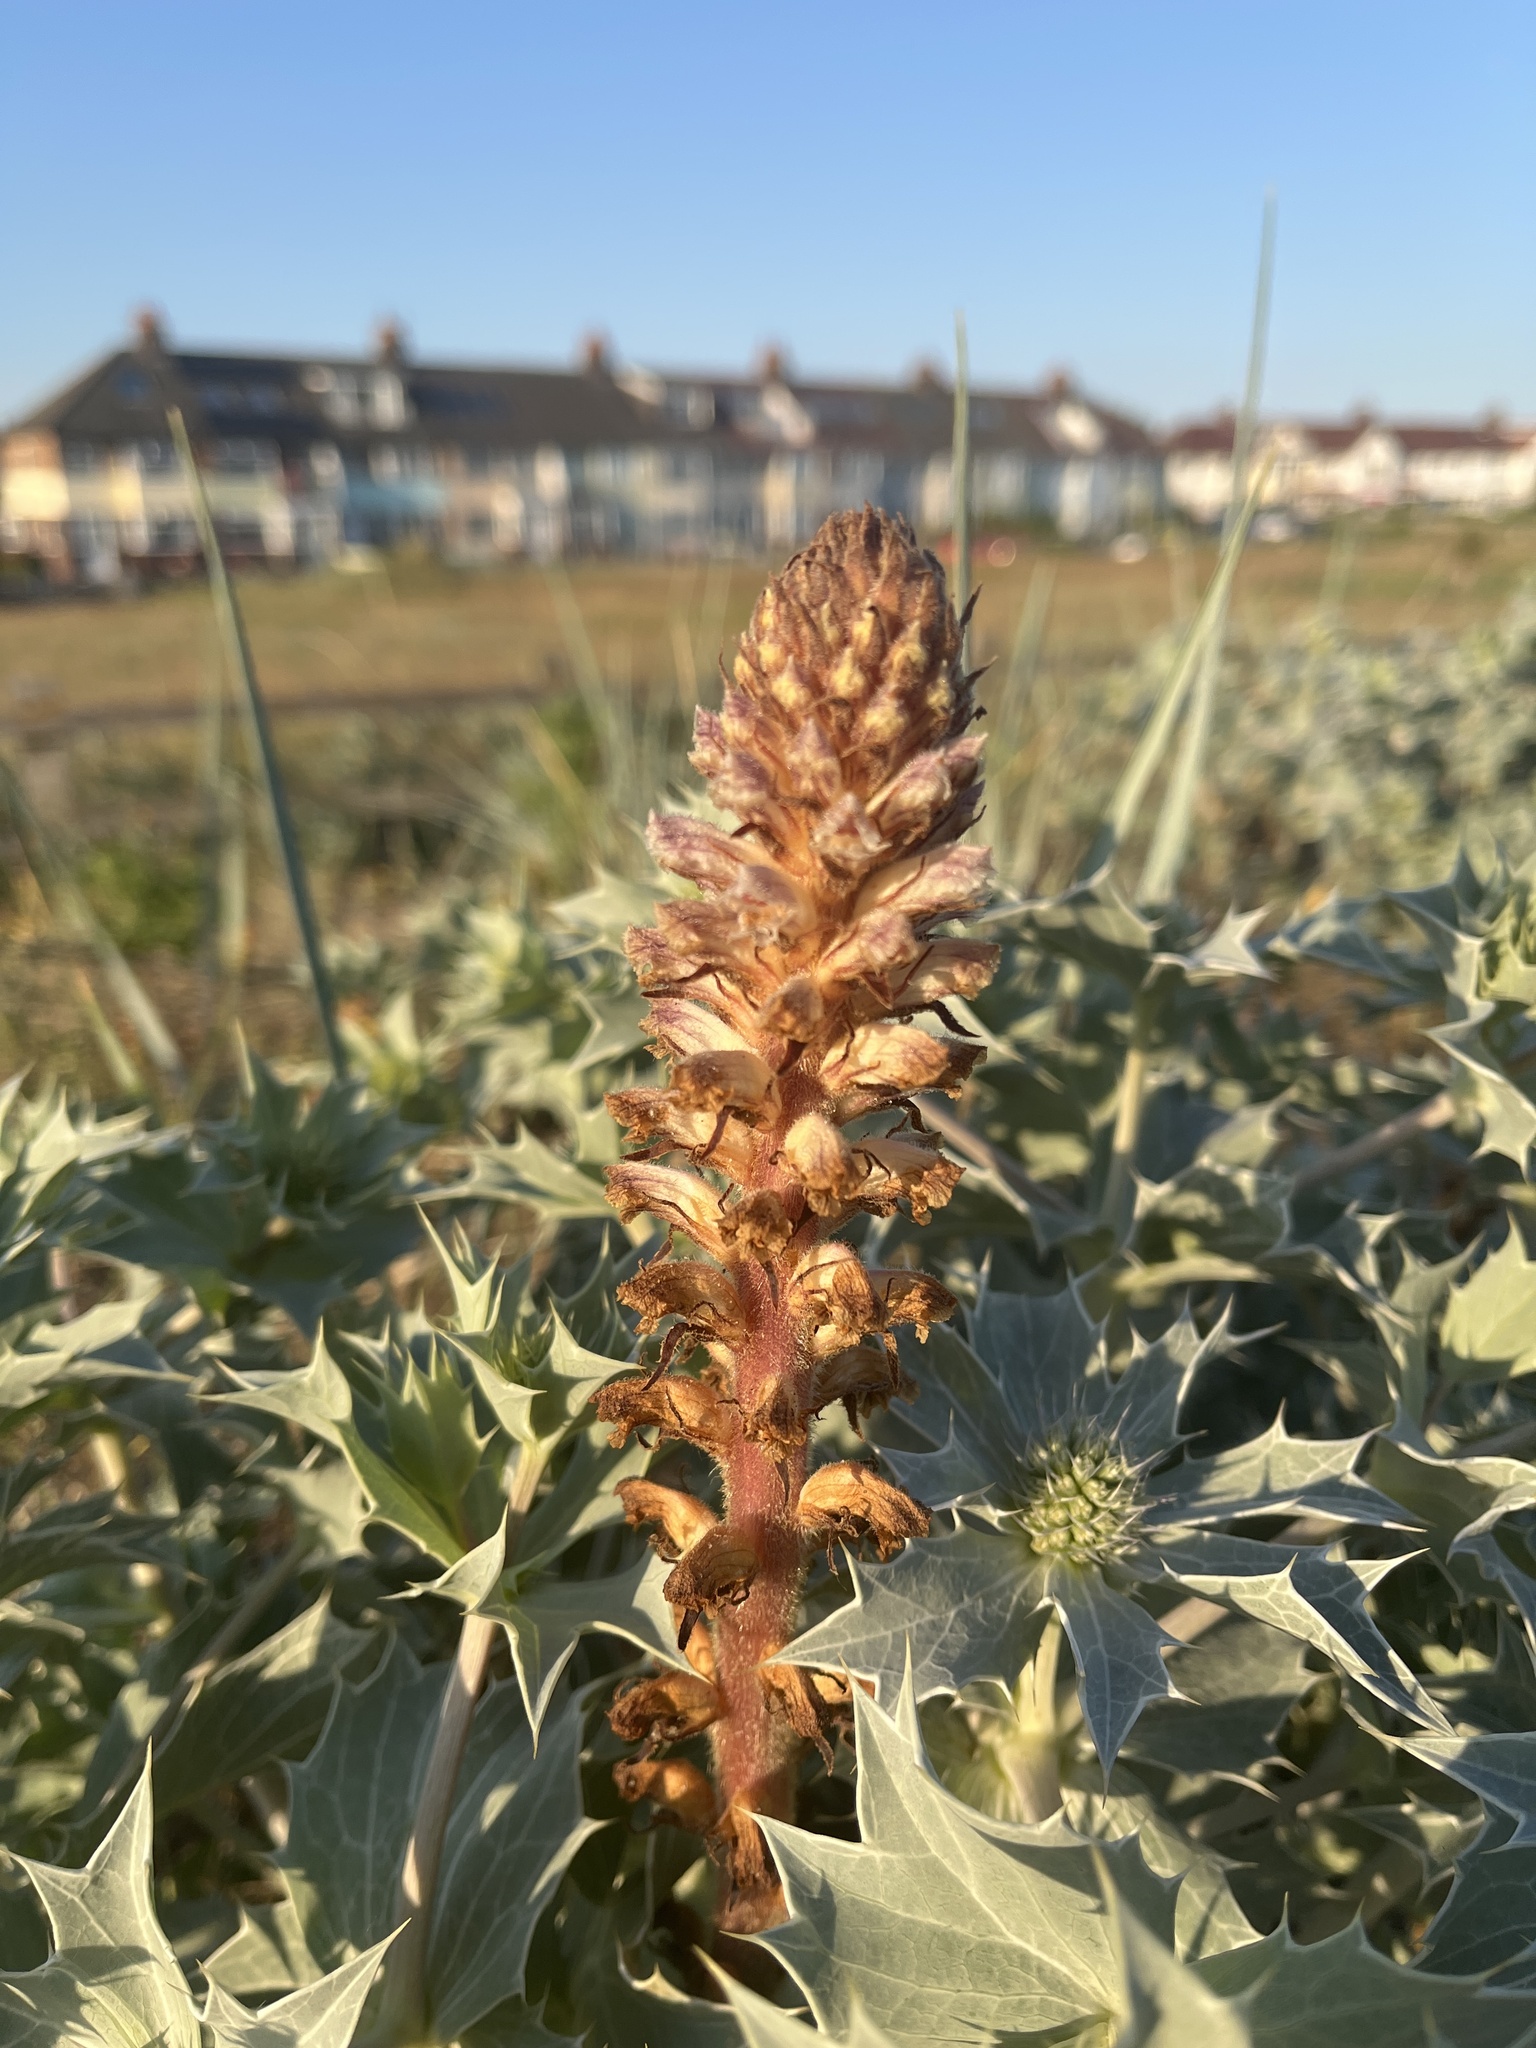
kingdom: Plantae
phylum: Tracheophyta
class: Magnoliopsida
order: Lamiales
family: Orobanchaceae
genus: Orobanche
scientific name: Orobanche minor
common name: Common broomrape
